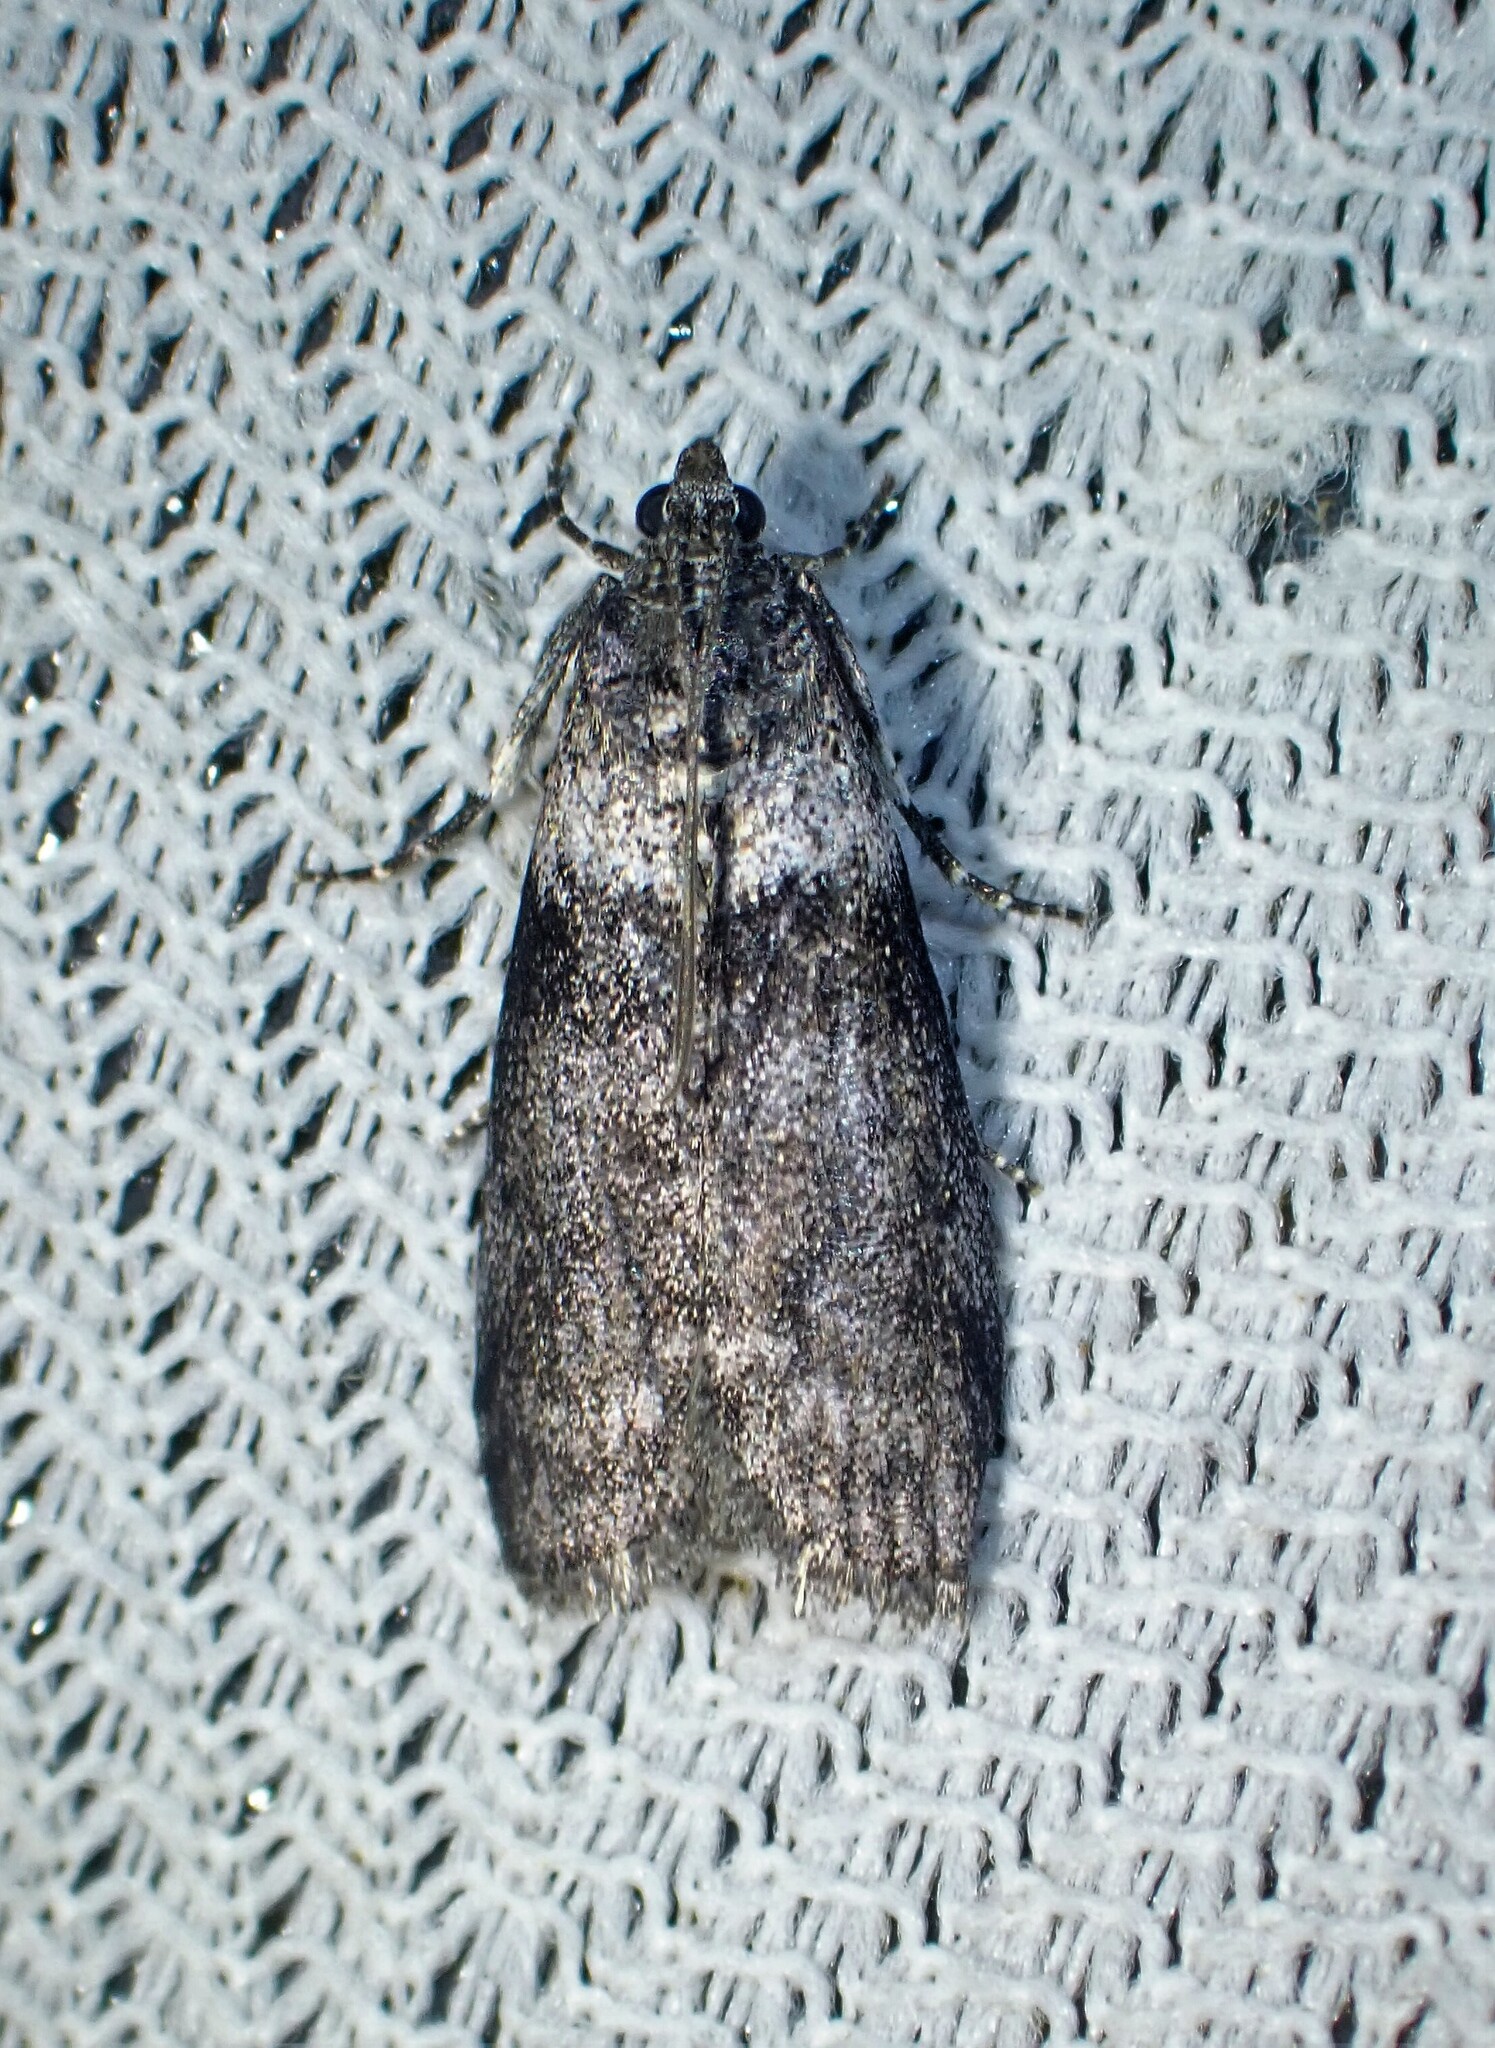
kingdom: Animalia
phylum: Arthropoda
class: Insecta
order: Lepidoptera
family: Pyralidae
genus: Meroptera
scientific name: Meroptera pravella
